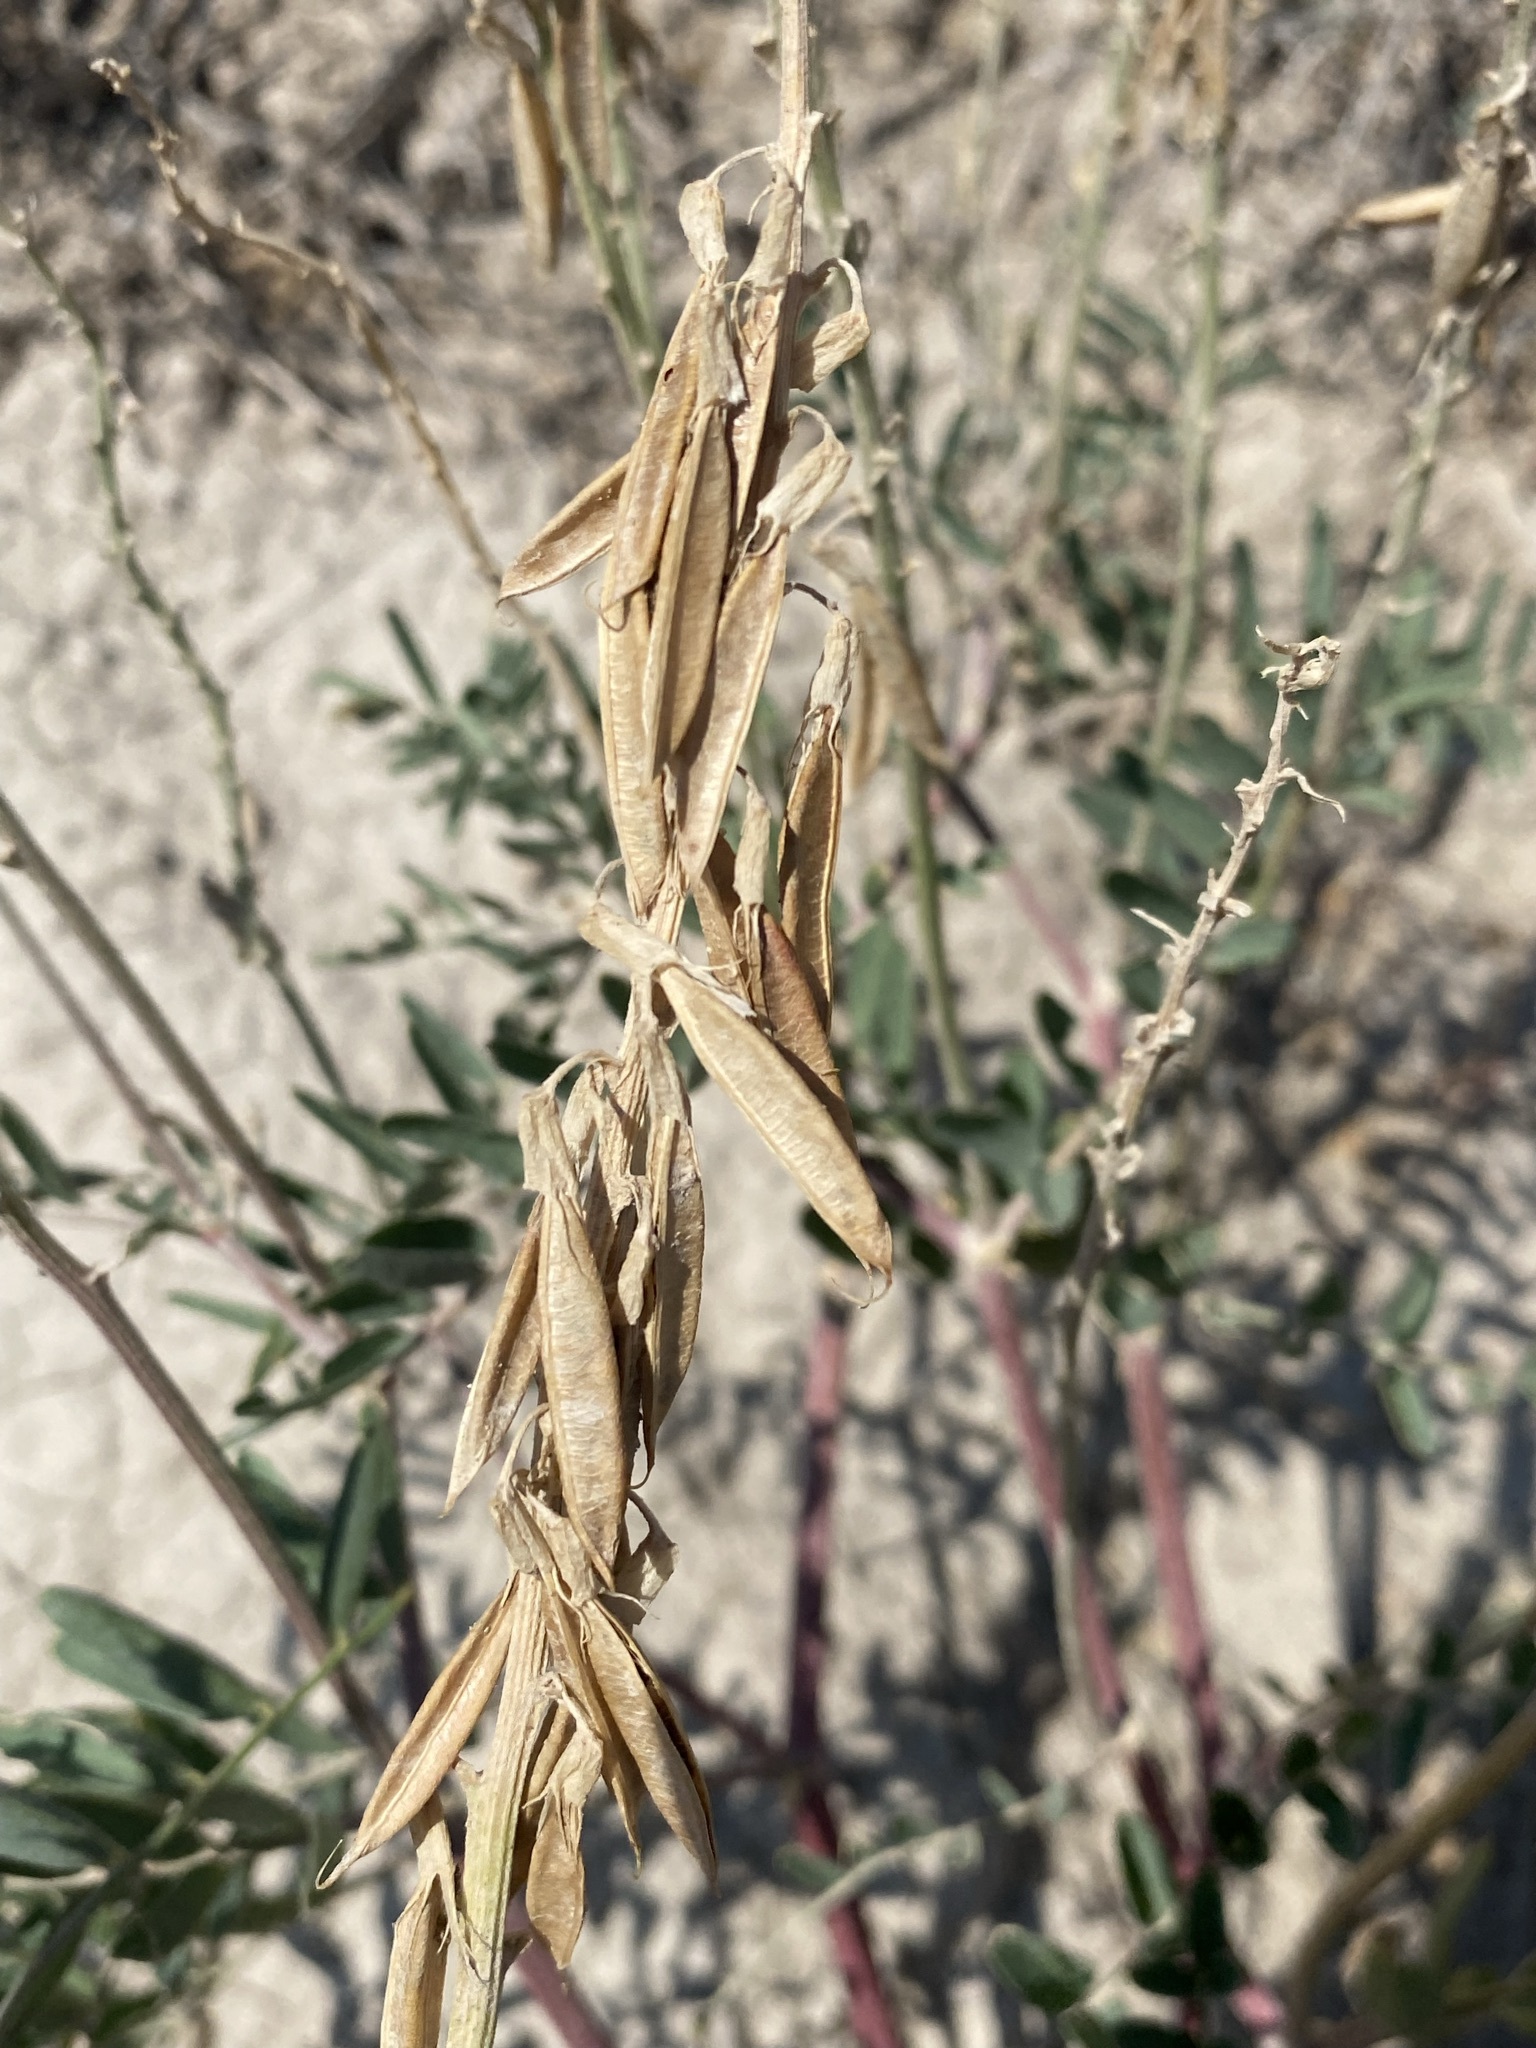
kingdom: Plantae
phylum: Tracheophyta
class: Magnoliopsida
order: Fabales
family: Fabaceae
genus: Astragalus
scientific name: Astragalus racemosus
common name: Alkali milk-vetch
